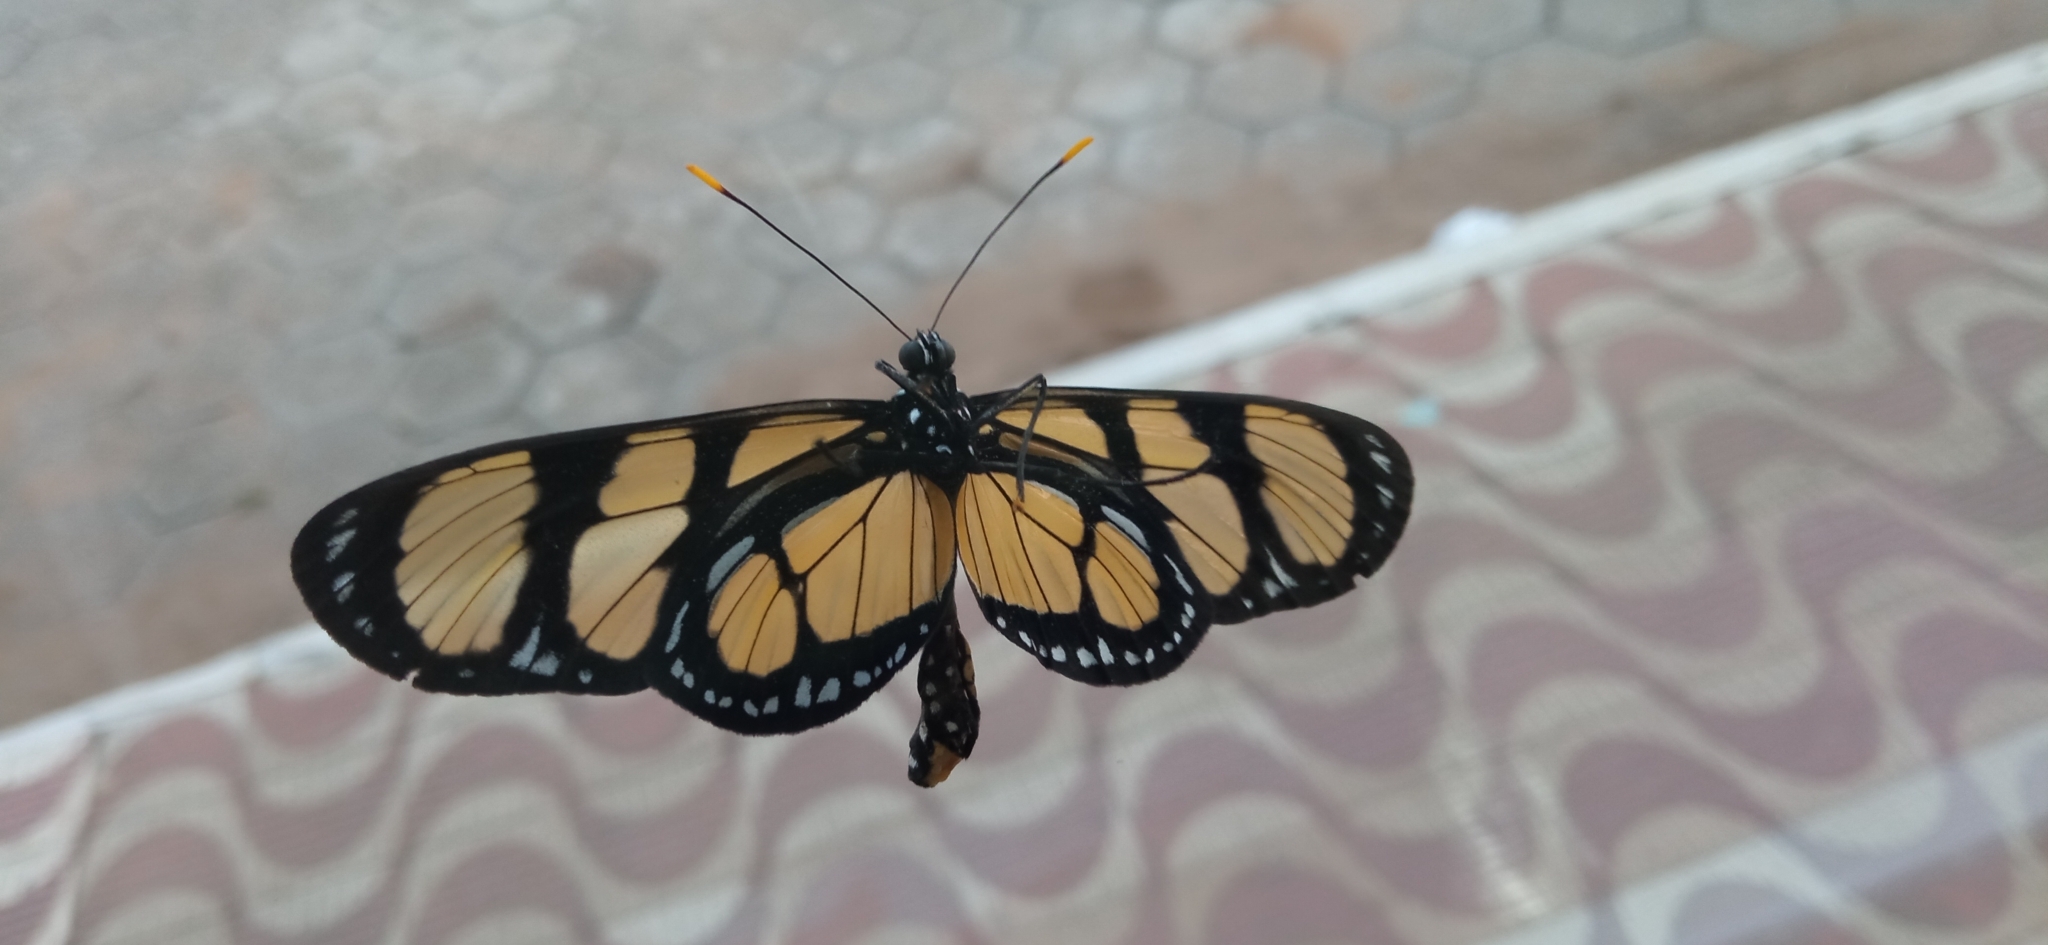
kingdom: Animalia
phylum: Arthropoda
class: Insecta
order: Lepidoptera
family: Nymphalidae
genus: Methona
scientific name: Methona themisto
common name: Themisto amberwing
